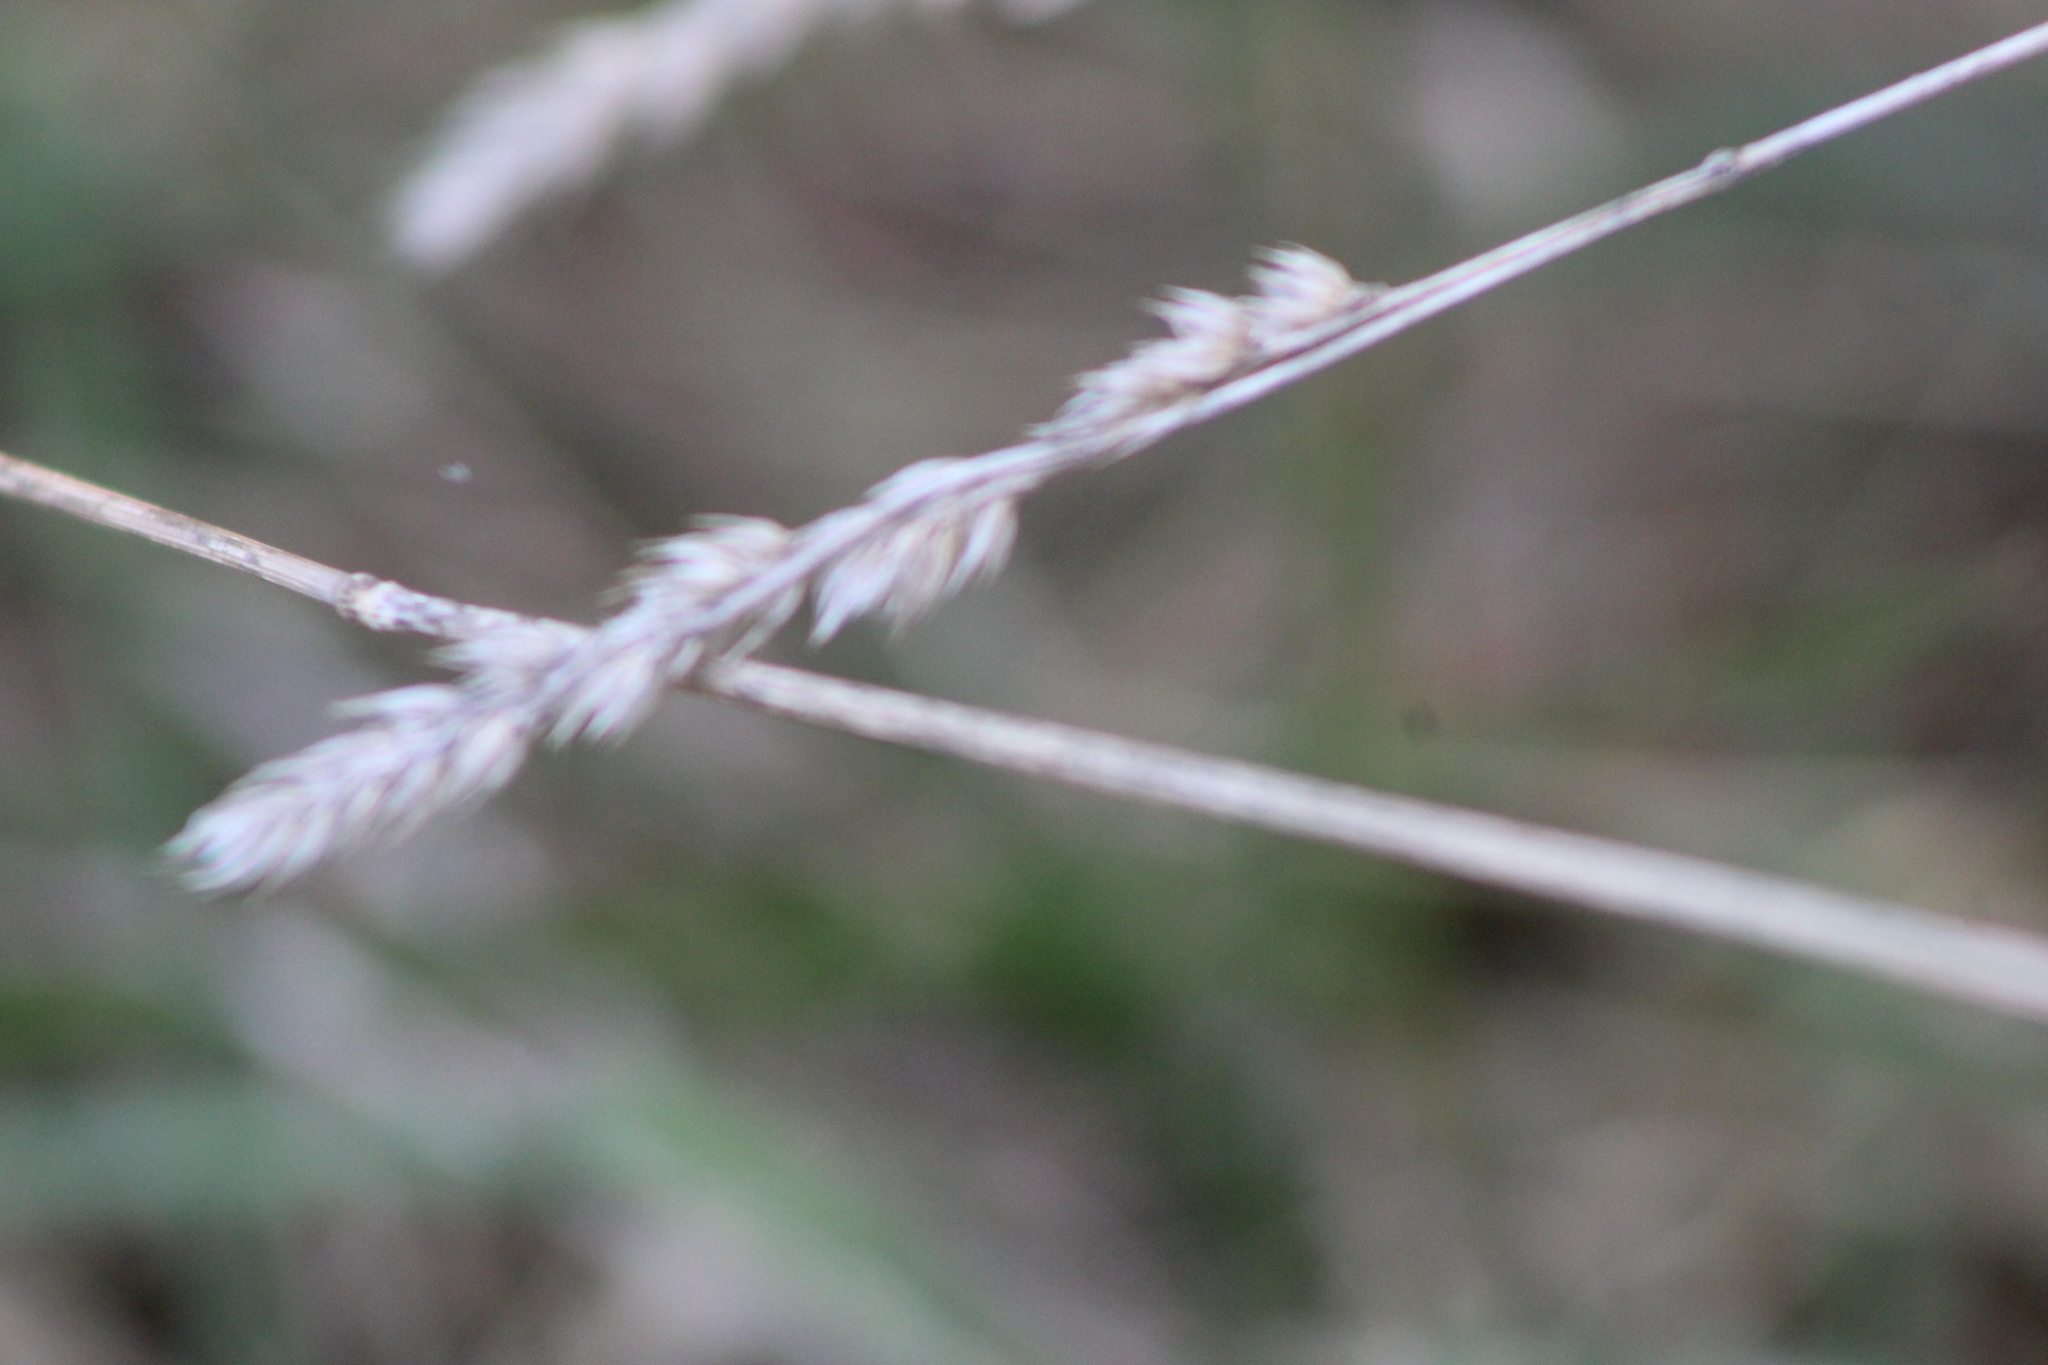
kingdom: Plantae
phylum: Tracheophyta
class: Liliopsida
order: Poales
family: Poaceae
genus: Dactylis
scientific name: Dactylis glomerata
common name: Orchardgrass
